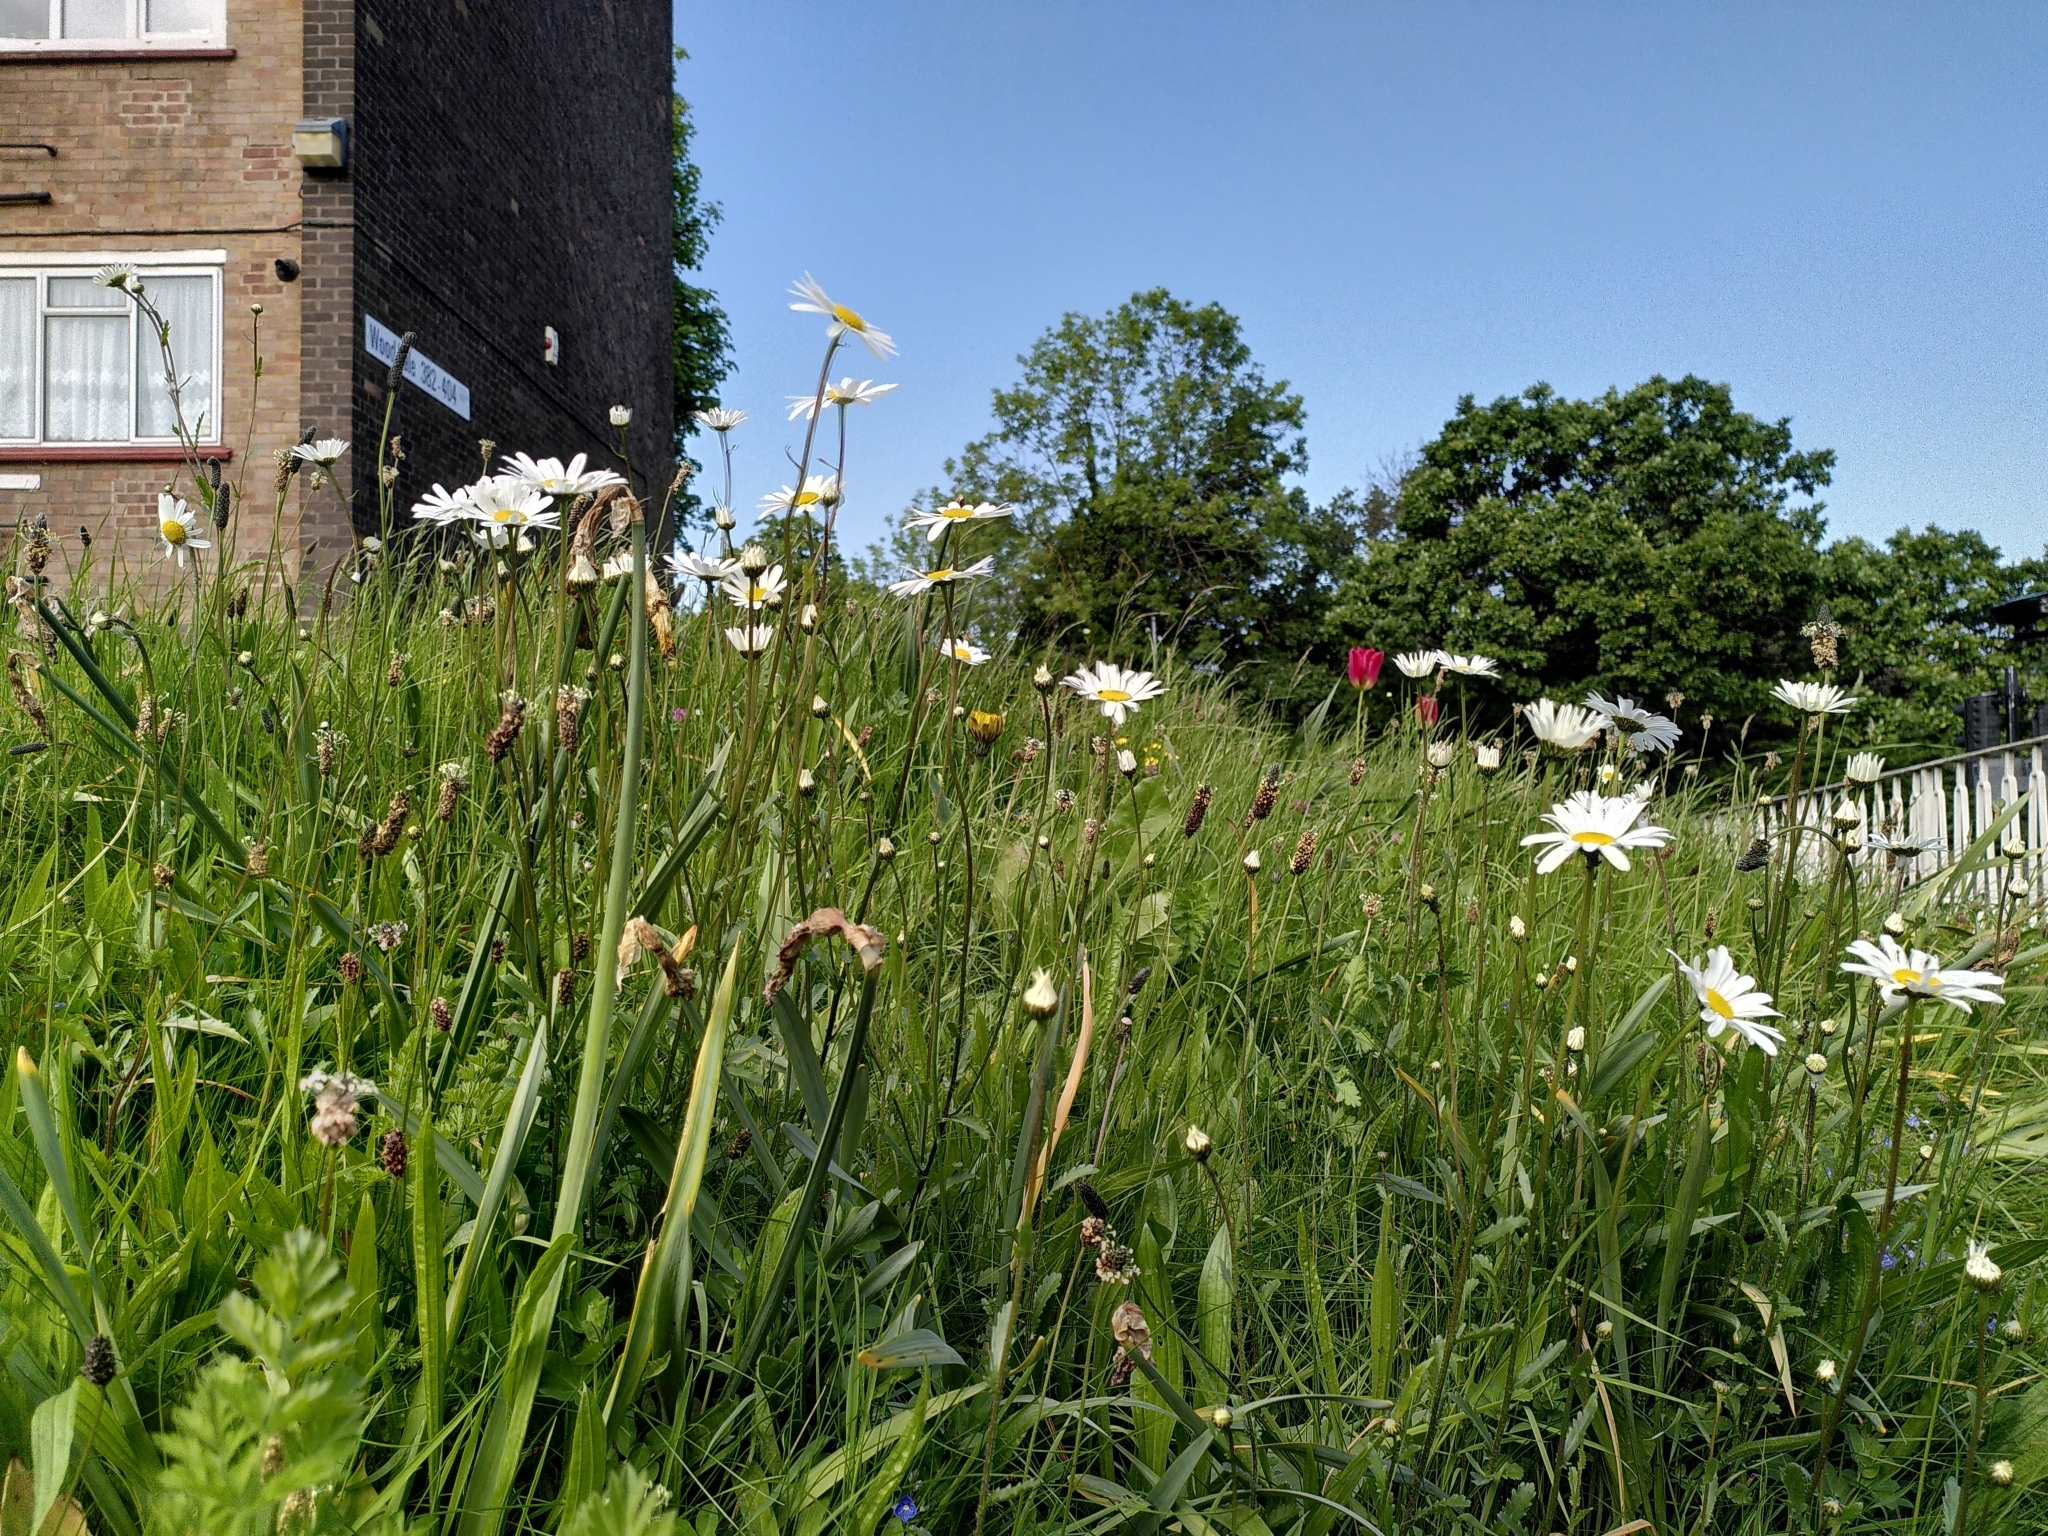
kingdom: Plantae
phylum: Tracheophyta
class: Magnoliopsida
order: Asterales
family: Asteraceae
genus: Leucanthemum
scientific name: Leucanthemum vulgare
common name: Oxeye daisy
